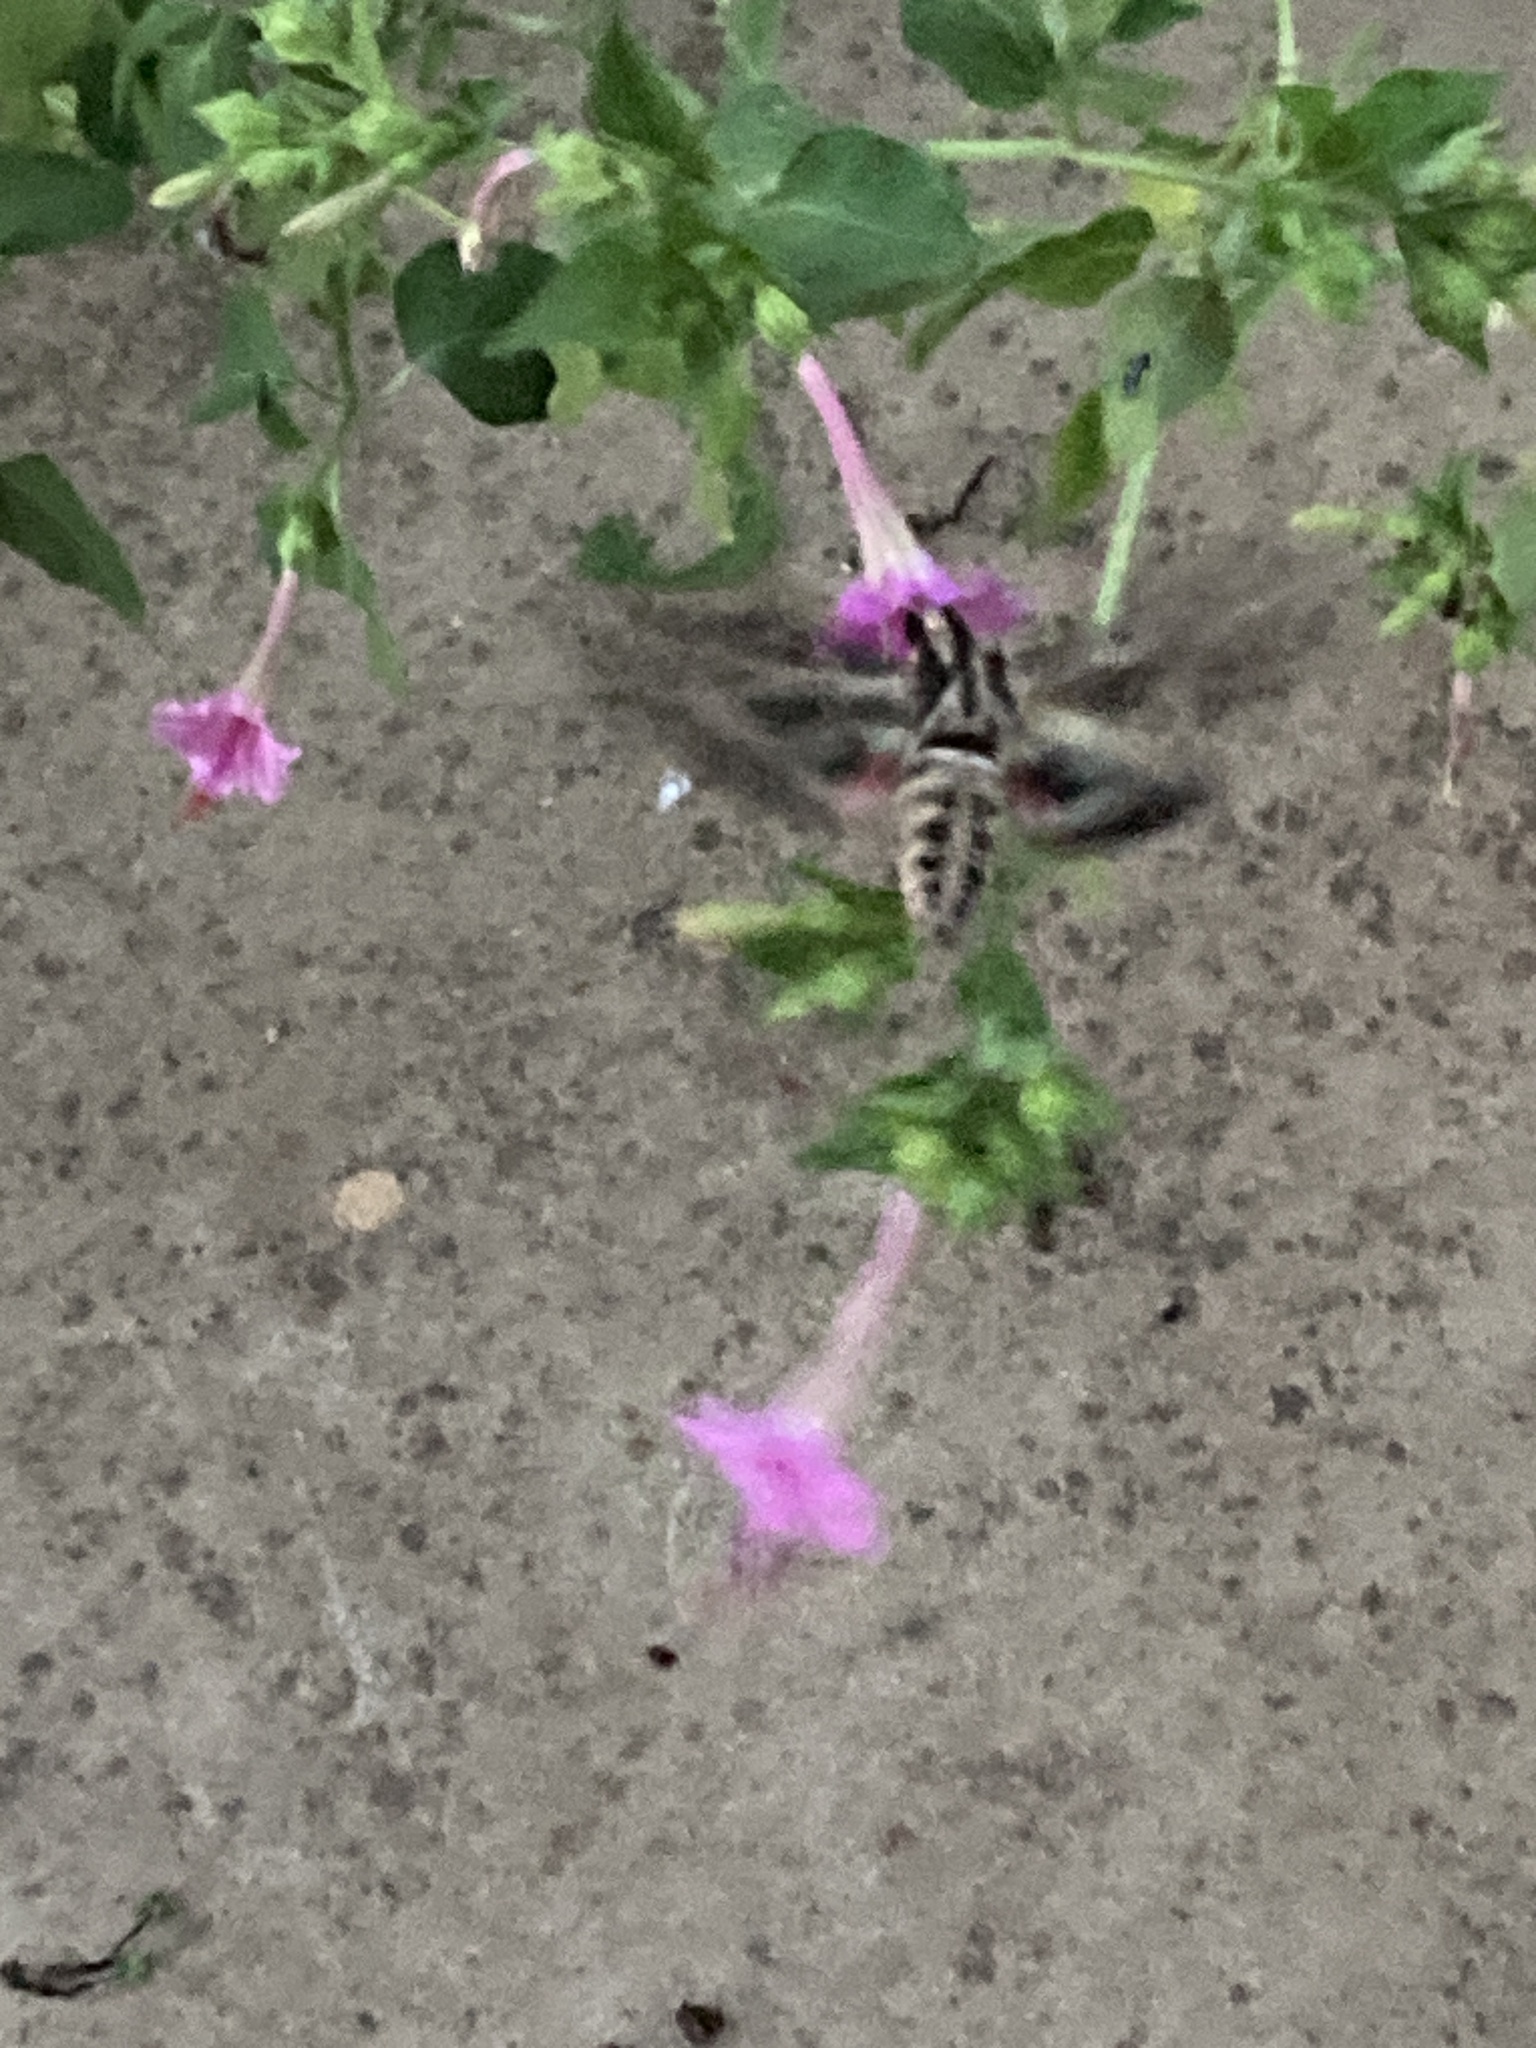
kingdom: Animalia
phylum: Arthropoda
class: Insecta
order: Lepidoptera
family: Sphingidae
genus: Eumorpha
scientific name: Eumorpha vitis
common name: Vine sphinx
